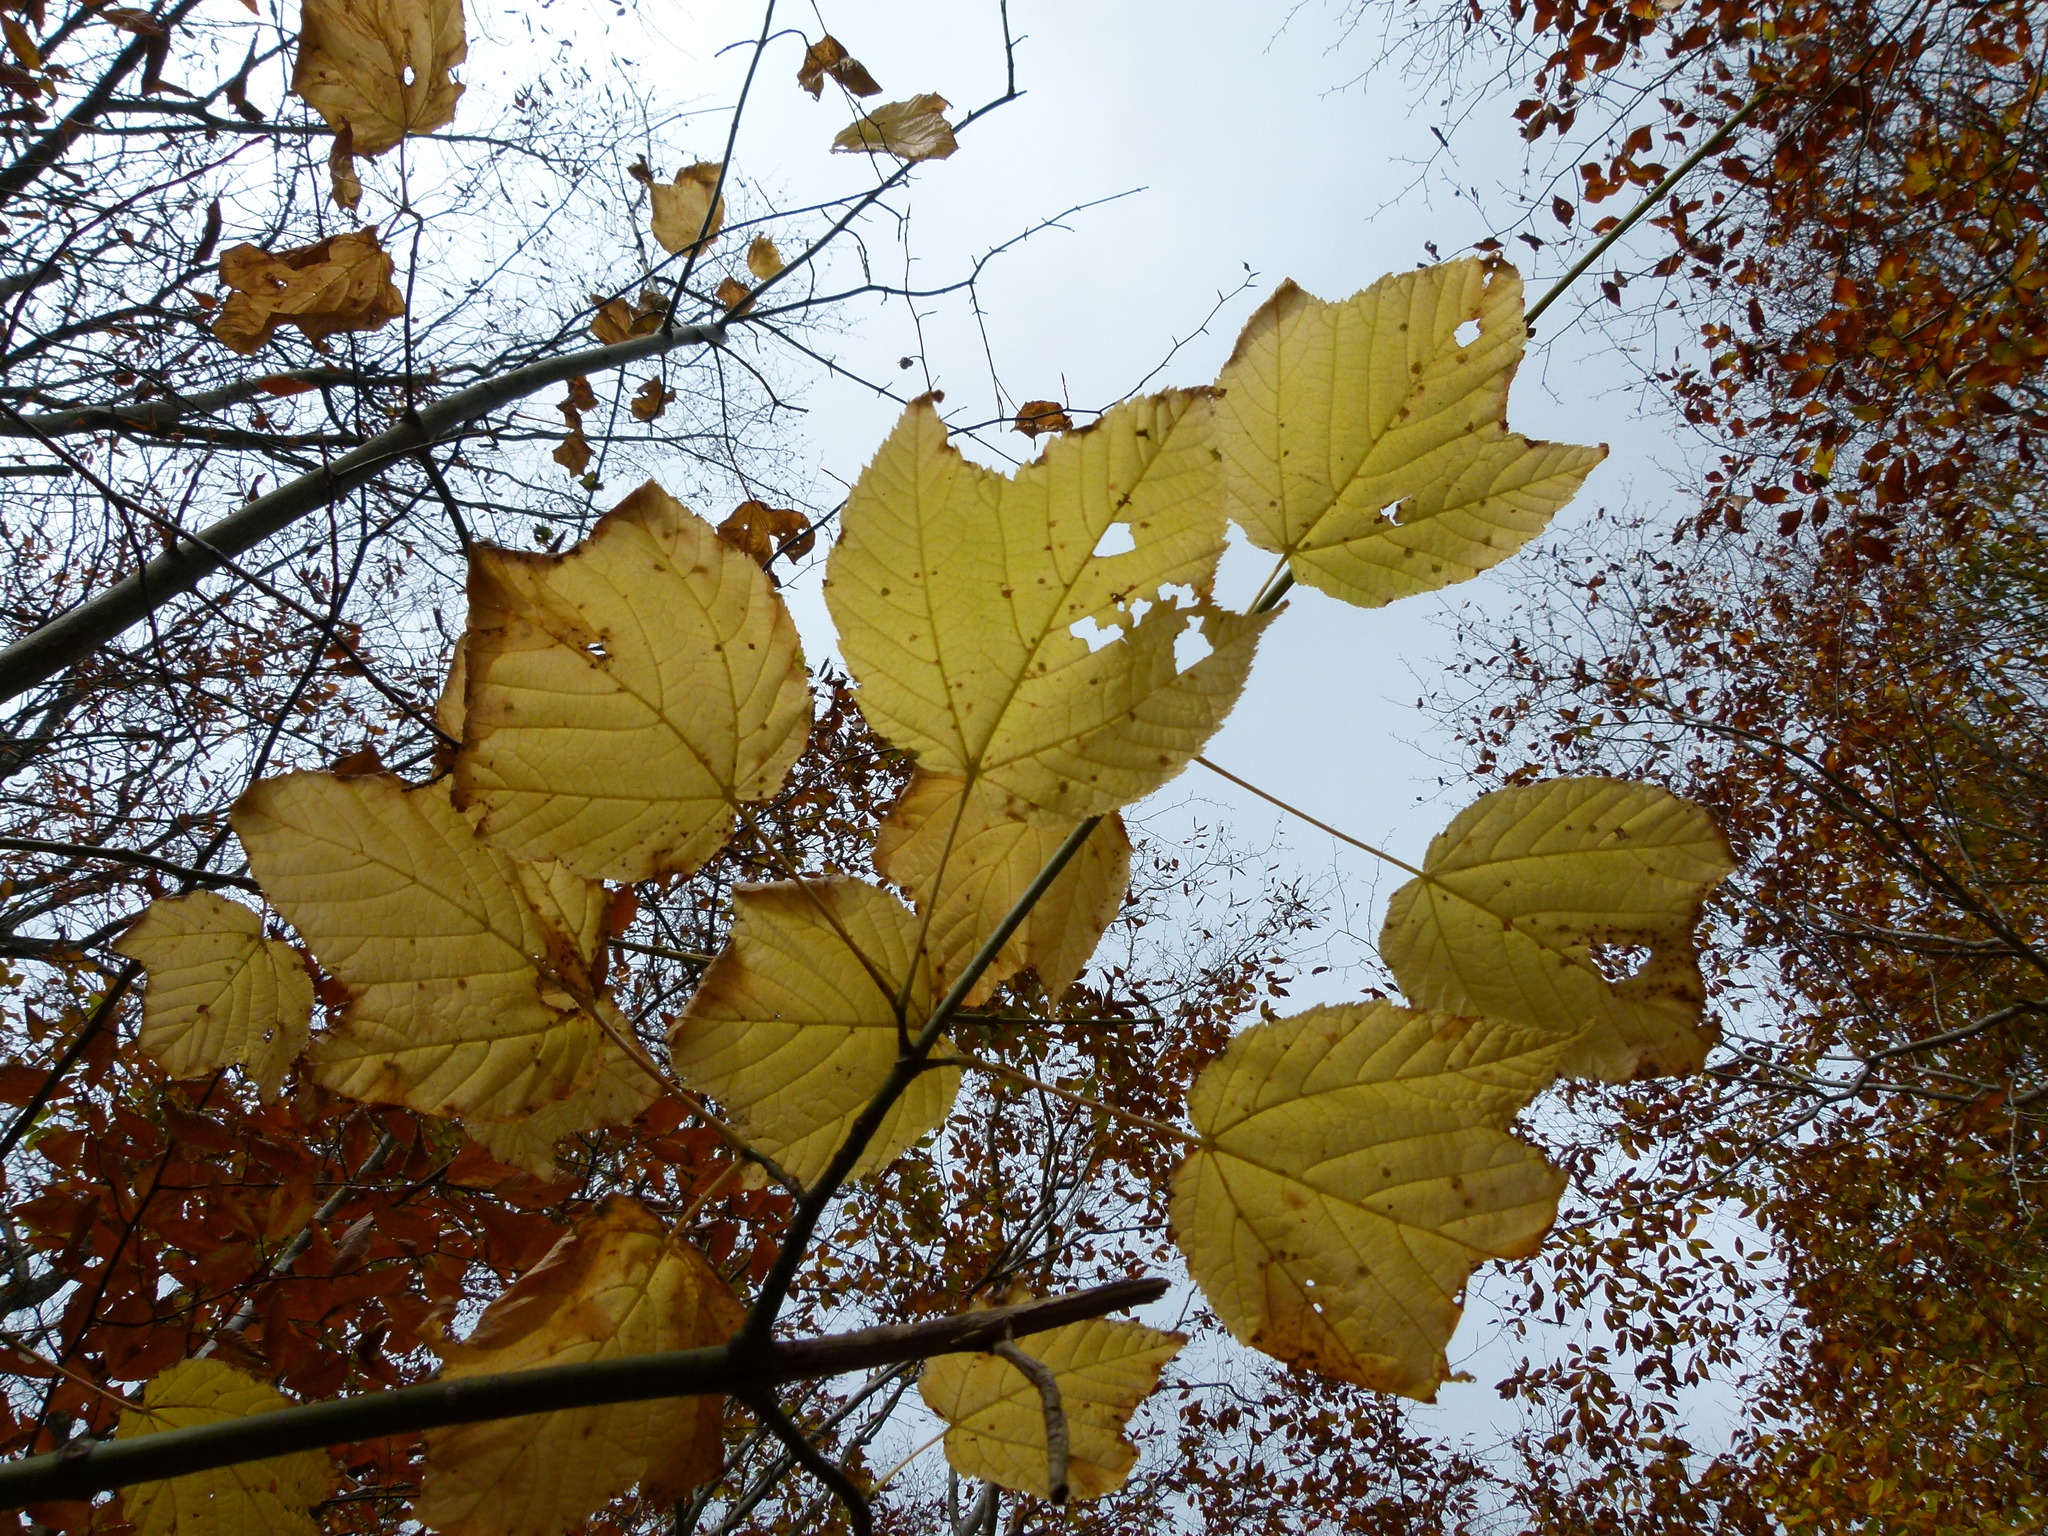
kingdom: Plantae
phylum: Tracheophyta
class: Magnoliopsida
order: Sapindales
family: Sapindaceae
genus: Acer
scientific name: Acer pensylvanicum
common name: Moosewood
